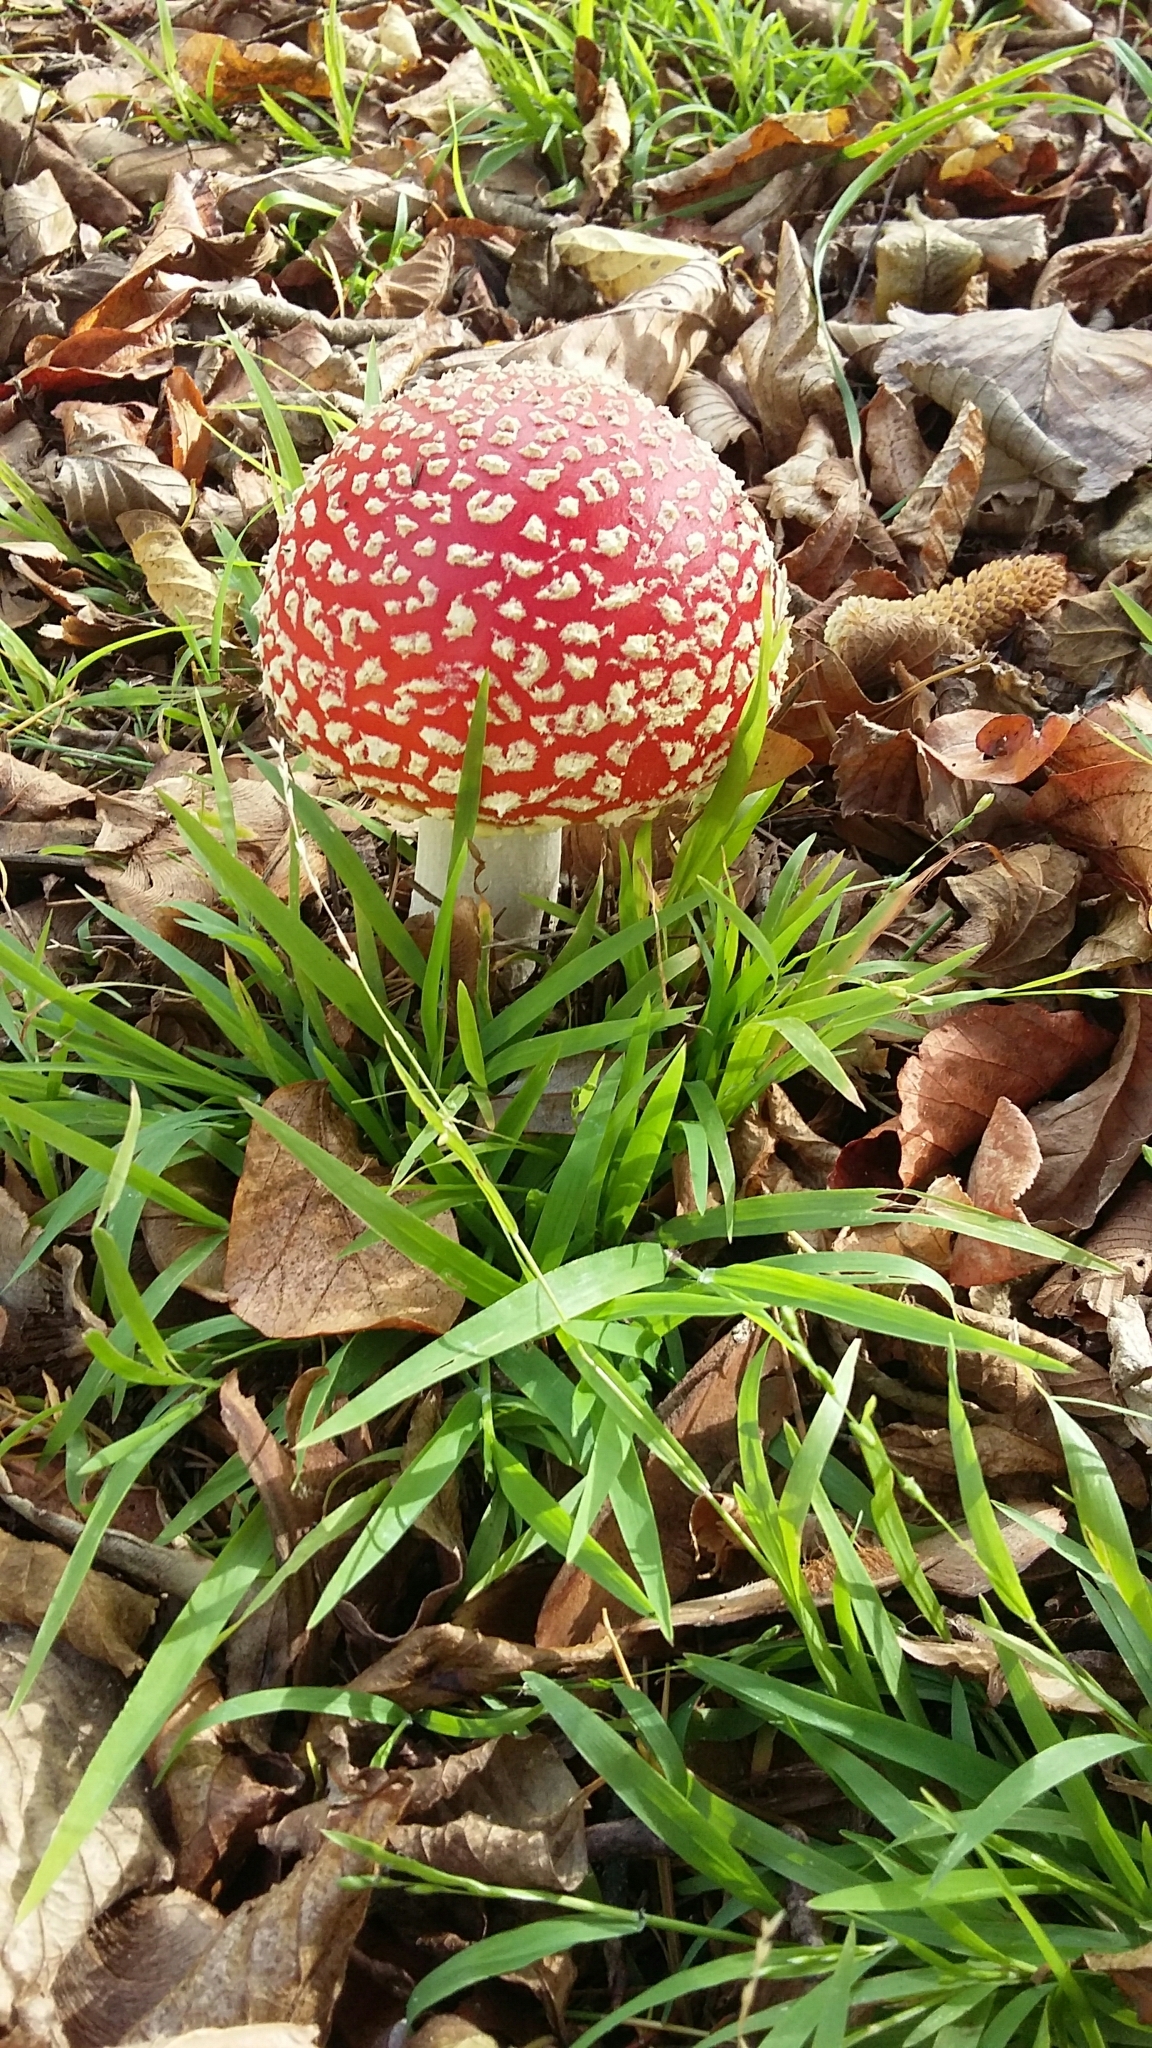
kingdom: Fungi
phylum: Basidiomycota
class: Agaricomycetes
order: Agaricales
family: Amanitaceae
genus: Amanita
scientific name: Amanita muscaria
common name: Fly agaric
